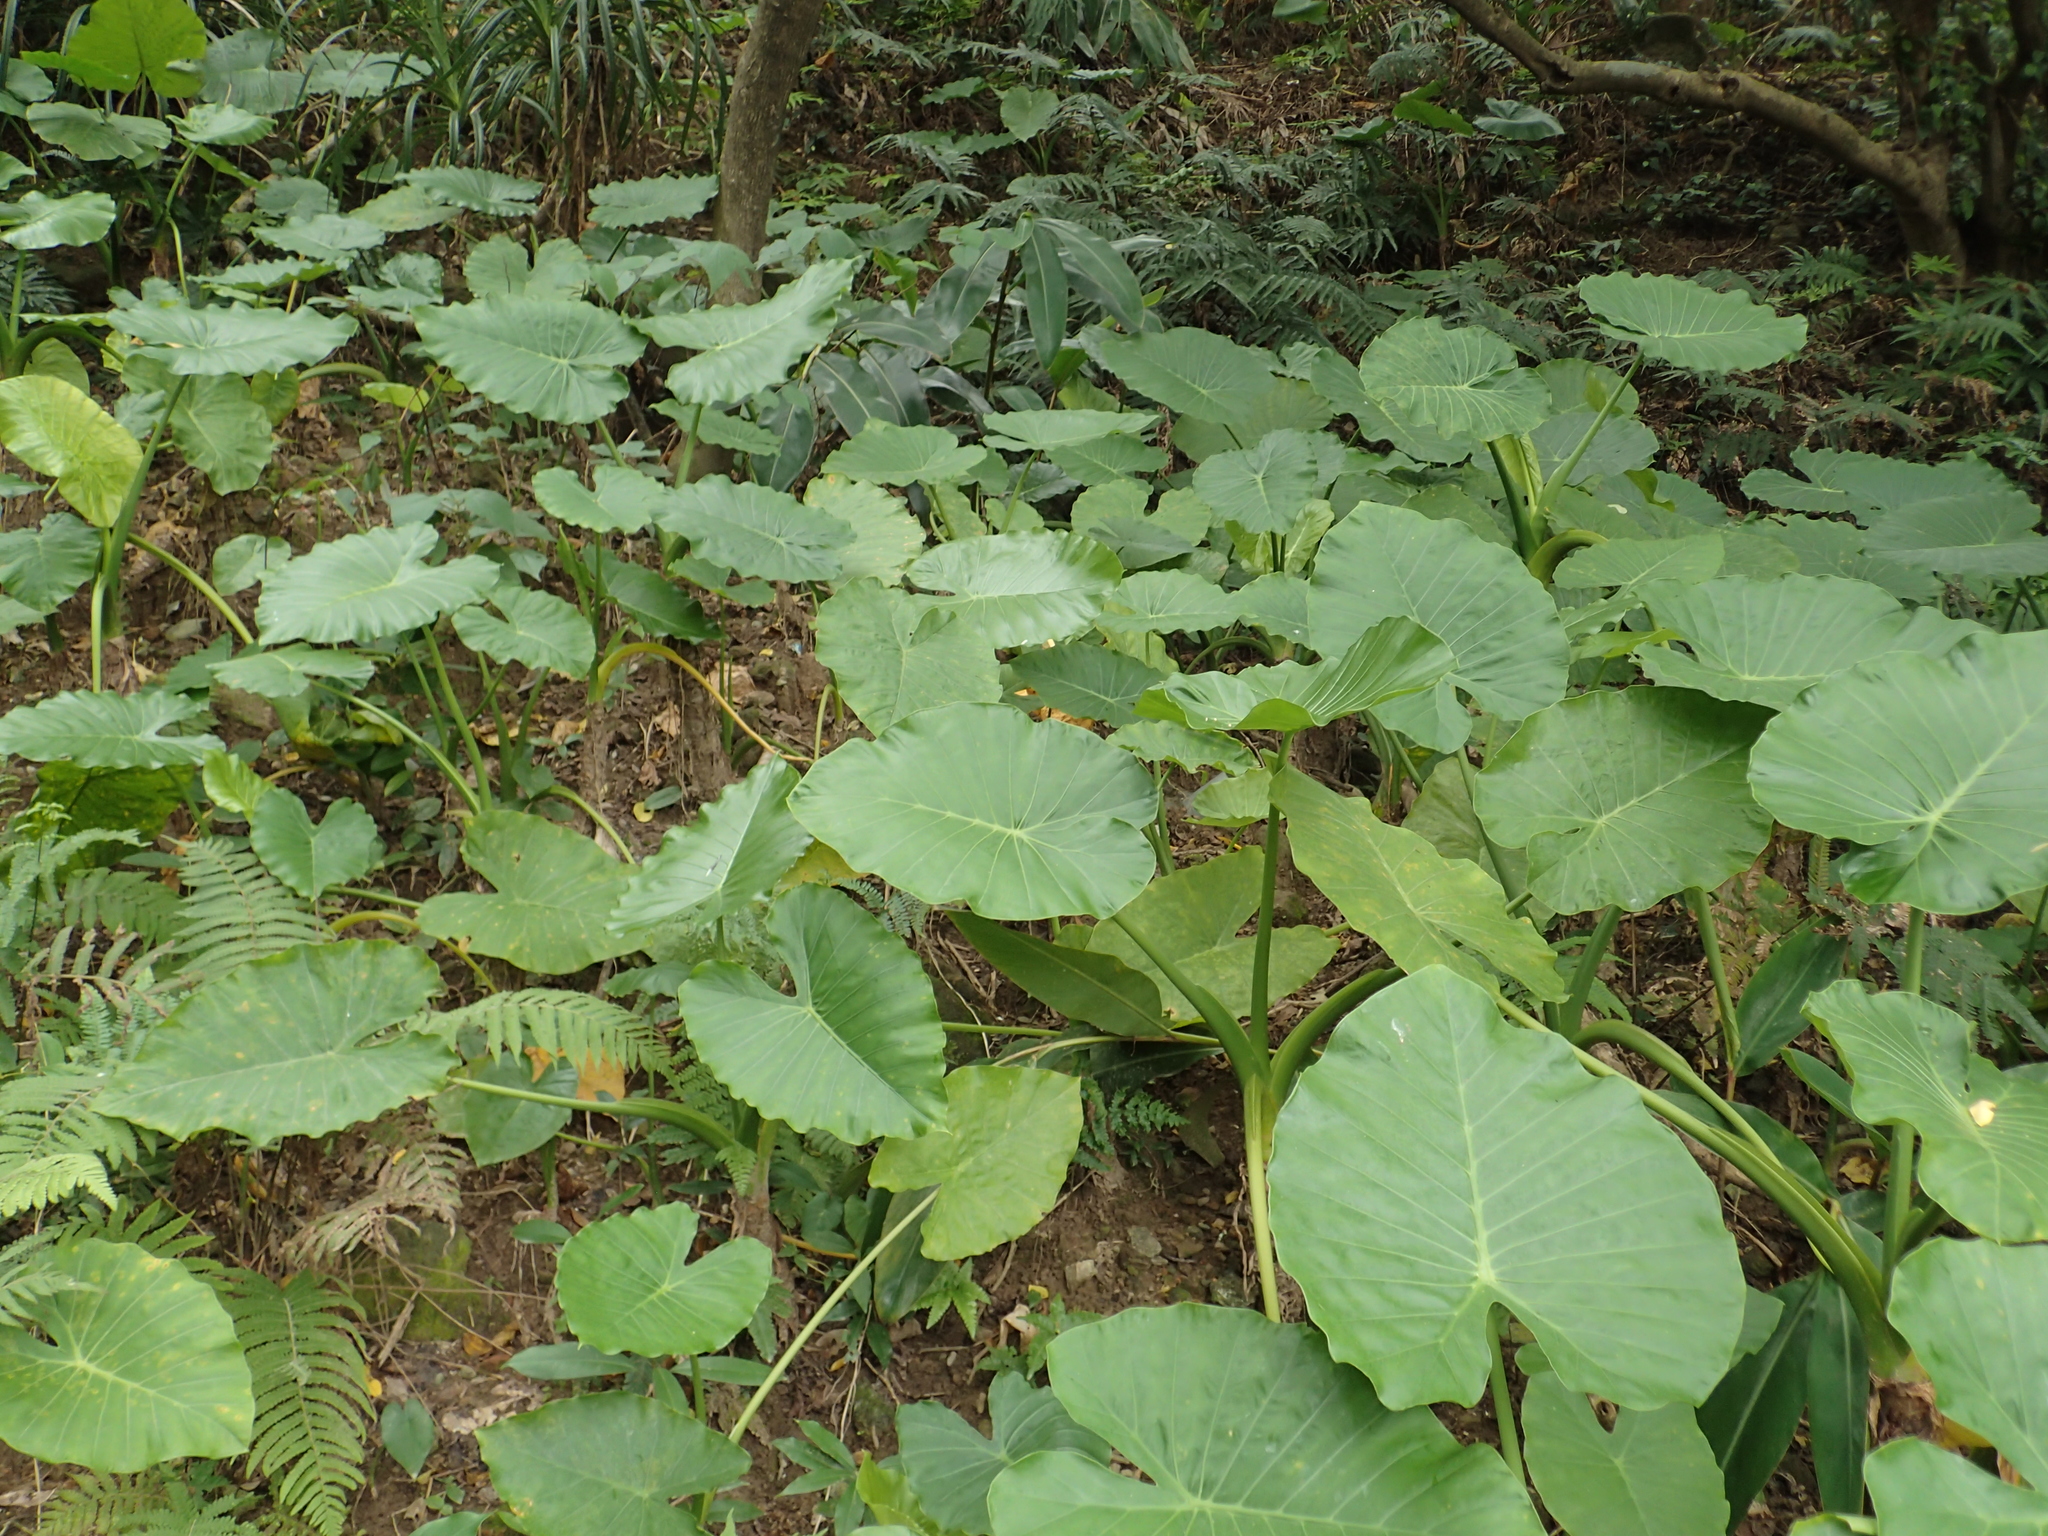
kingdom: Plantae
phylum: Tracheophyta
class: Liliopsida
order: Alismatales
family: Araceae
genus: Alocasia
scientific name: Alocasia odora
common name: Asian taro
